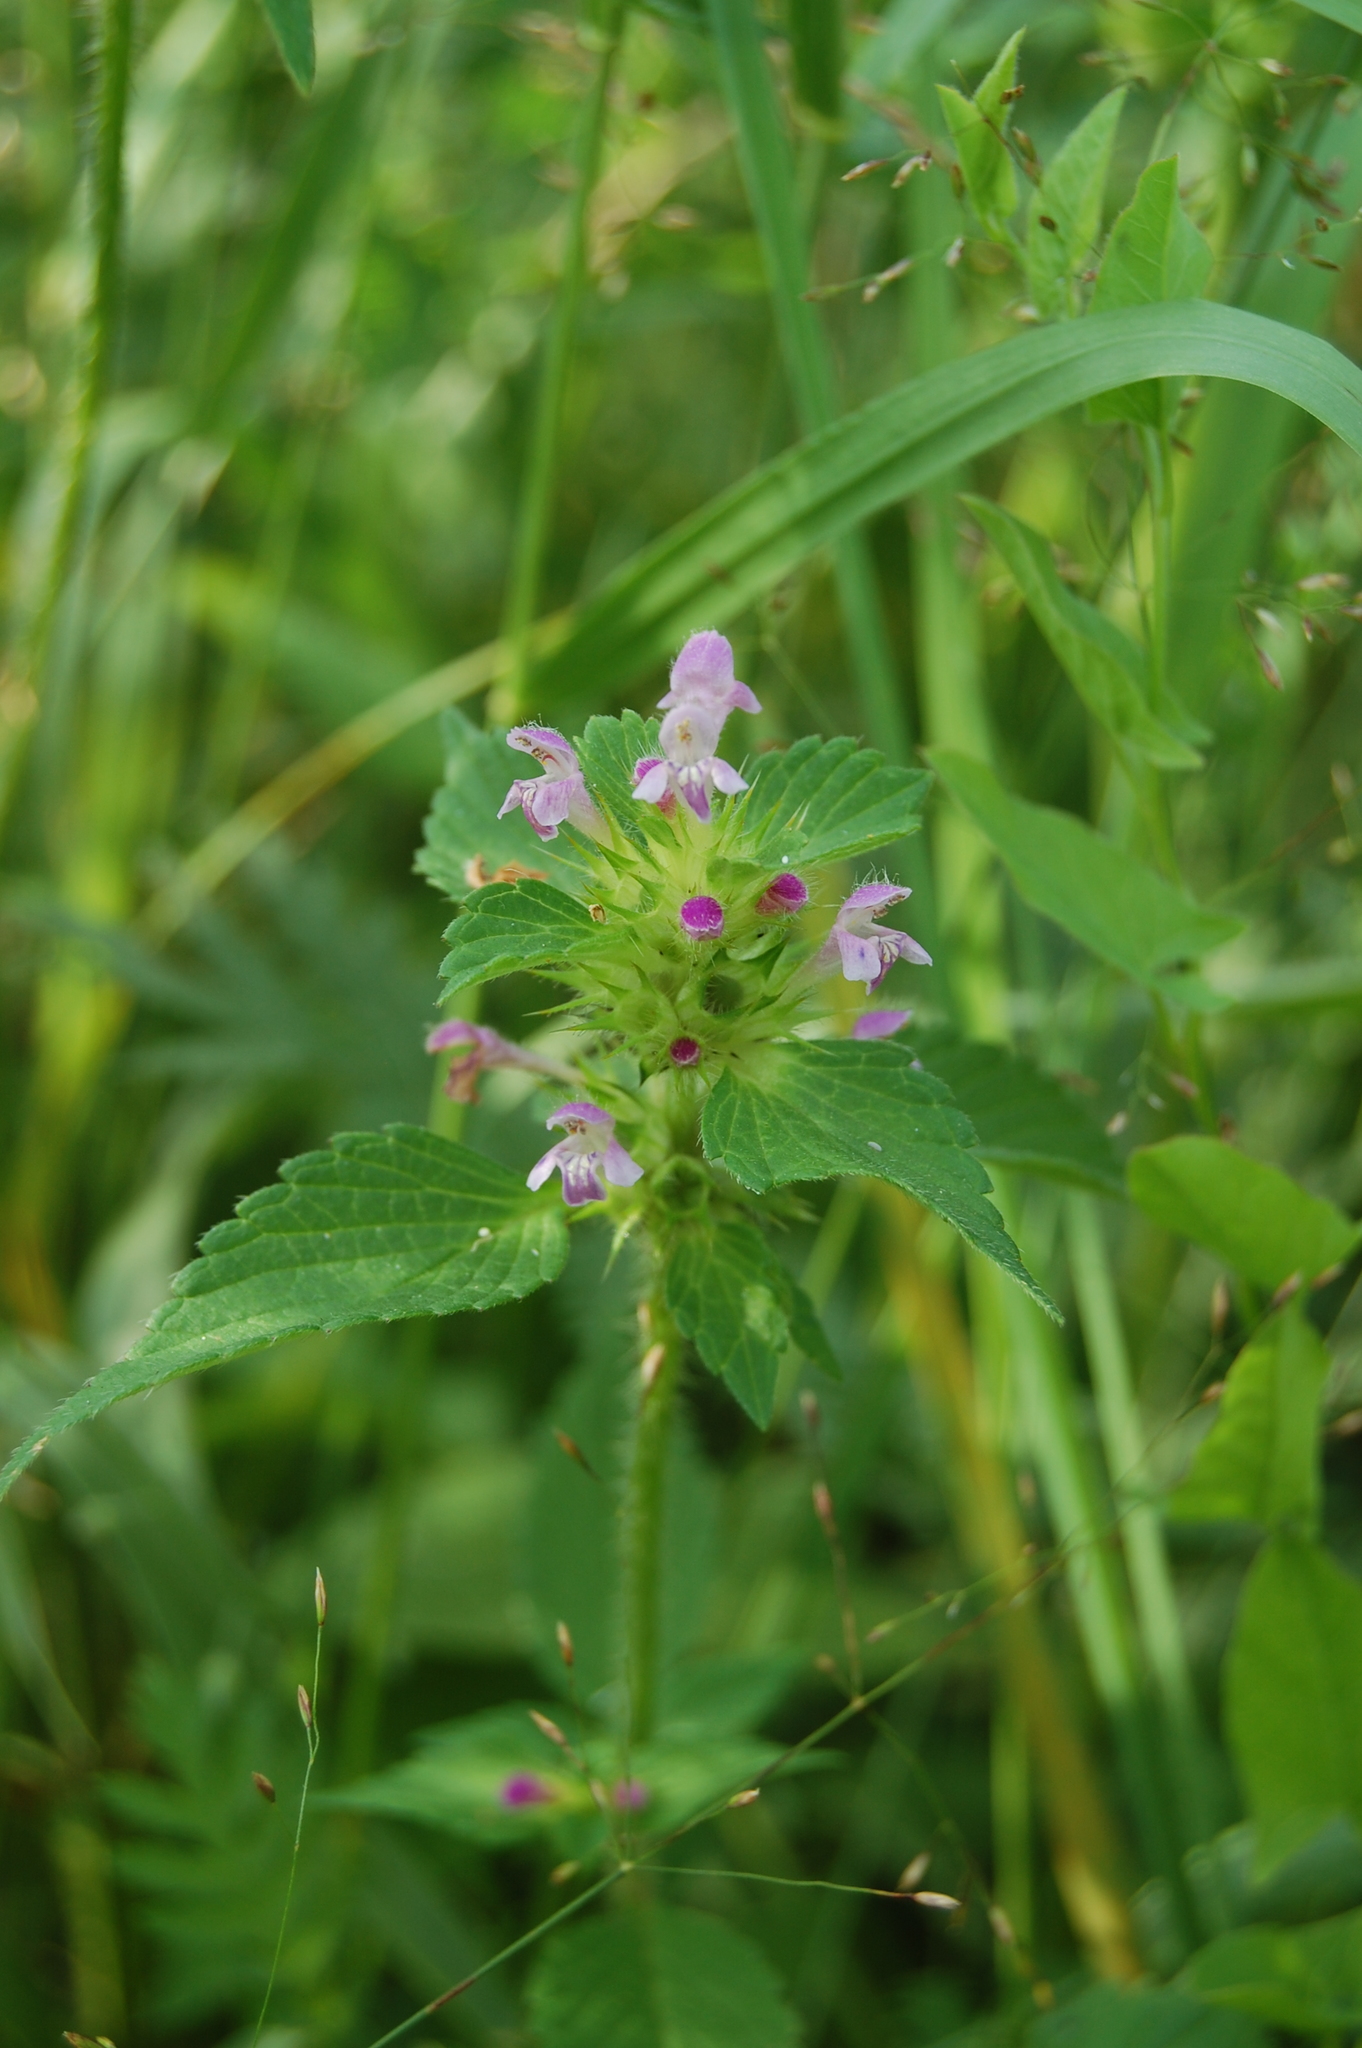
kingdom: Plantae
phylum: Tracheophyta
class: Magnoliopsida
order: Lamiales
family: Lamiaceae
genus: Galeopsis
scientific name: Galeopsis bifida
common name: Bifid hemp-nettle
